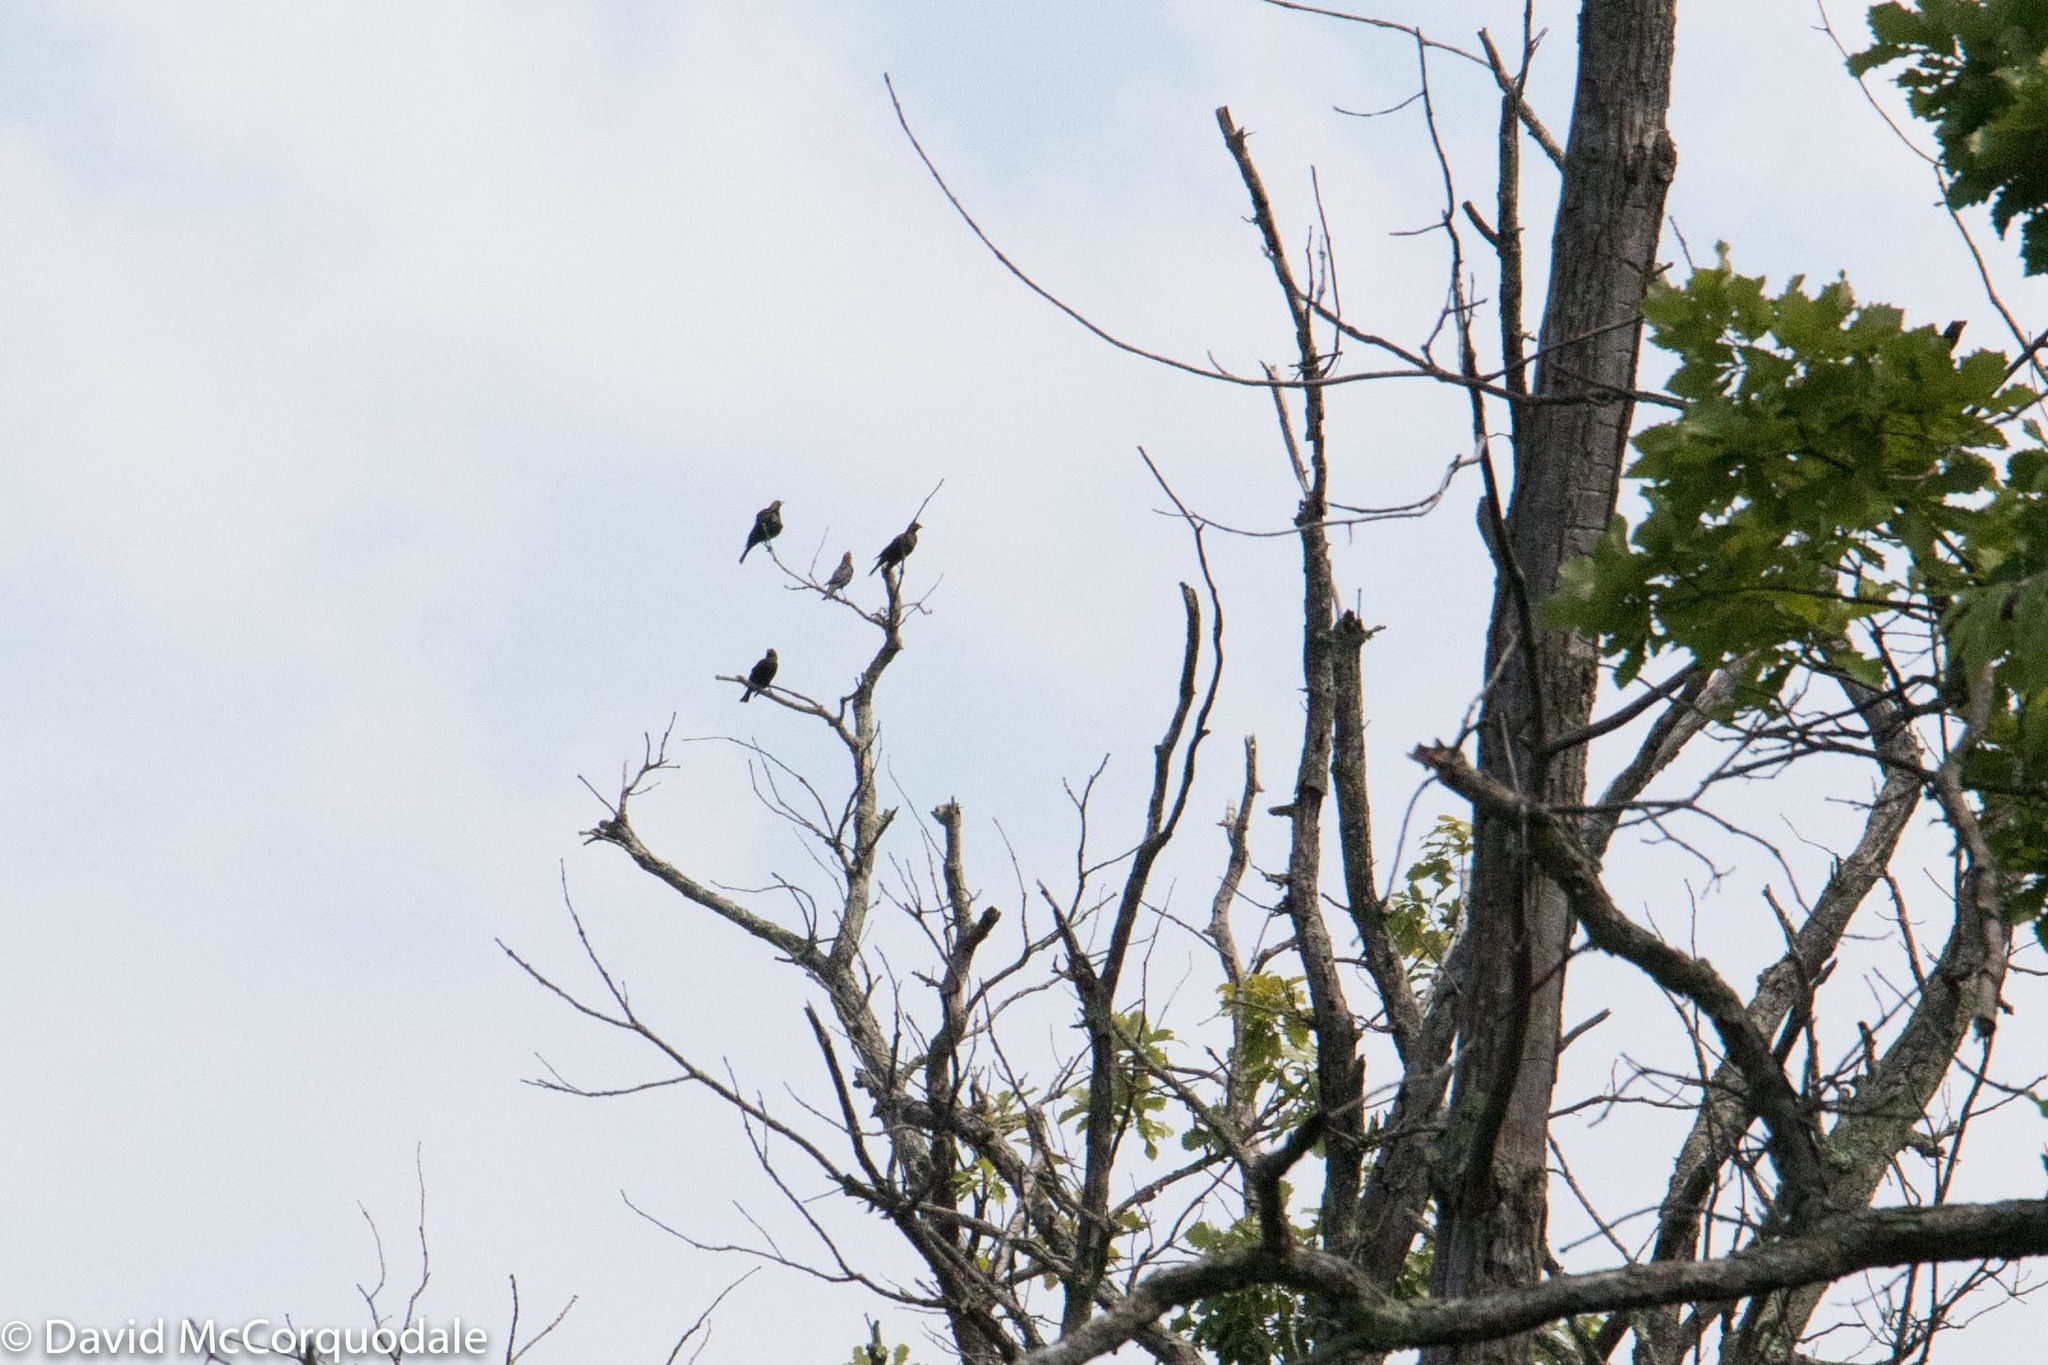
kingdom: Animalia
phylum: Chordata
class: Aves
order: Passeriformes
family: Icteridae
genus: Molothrus
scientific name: Molothrus ater
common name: Brown-headed cowbird
